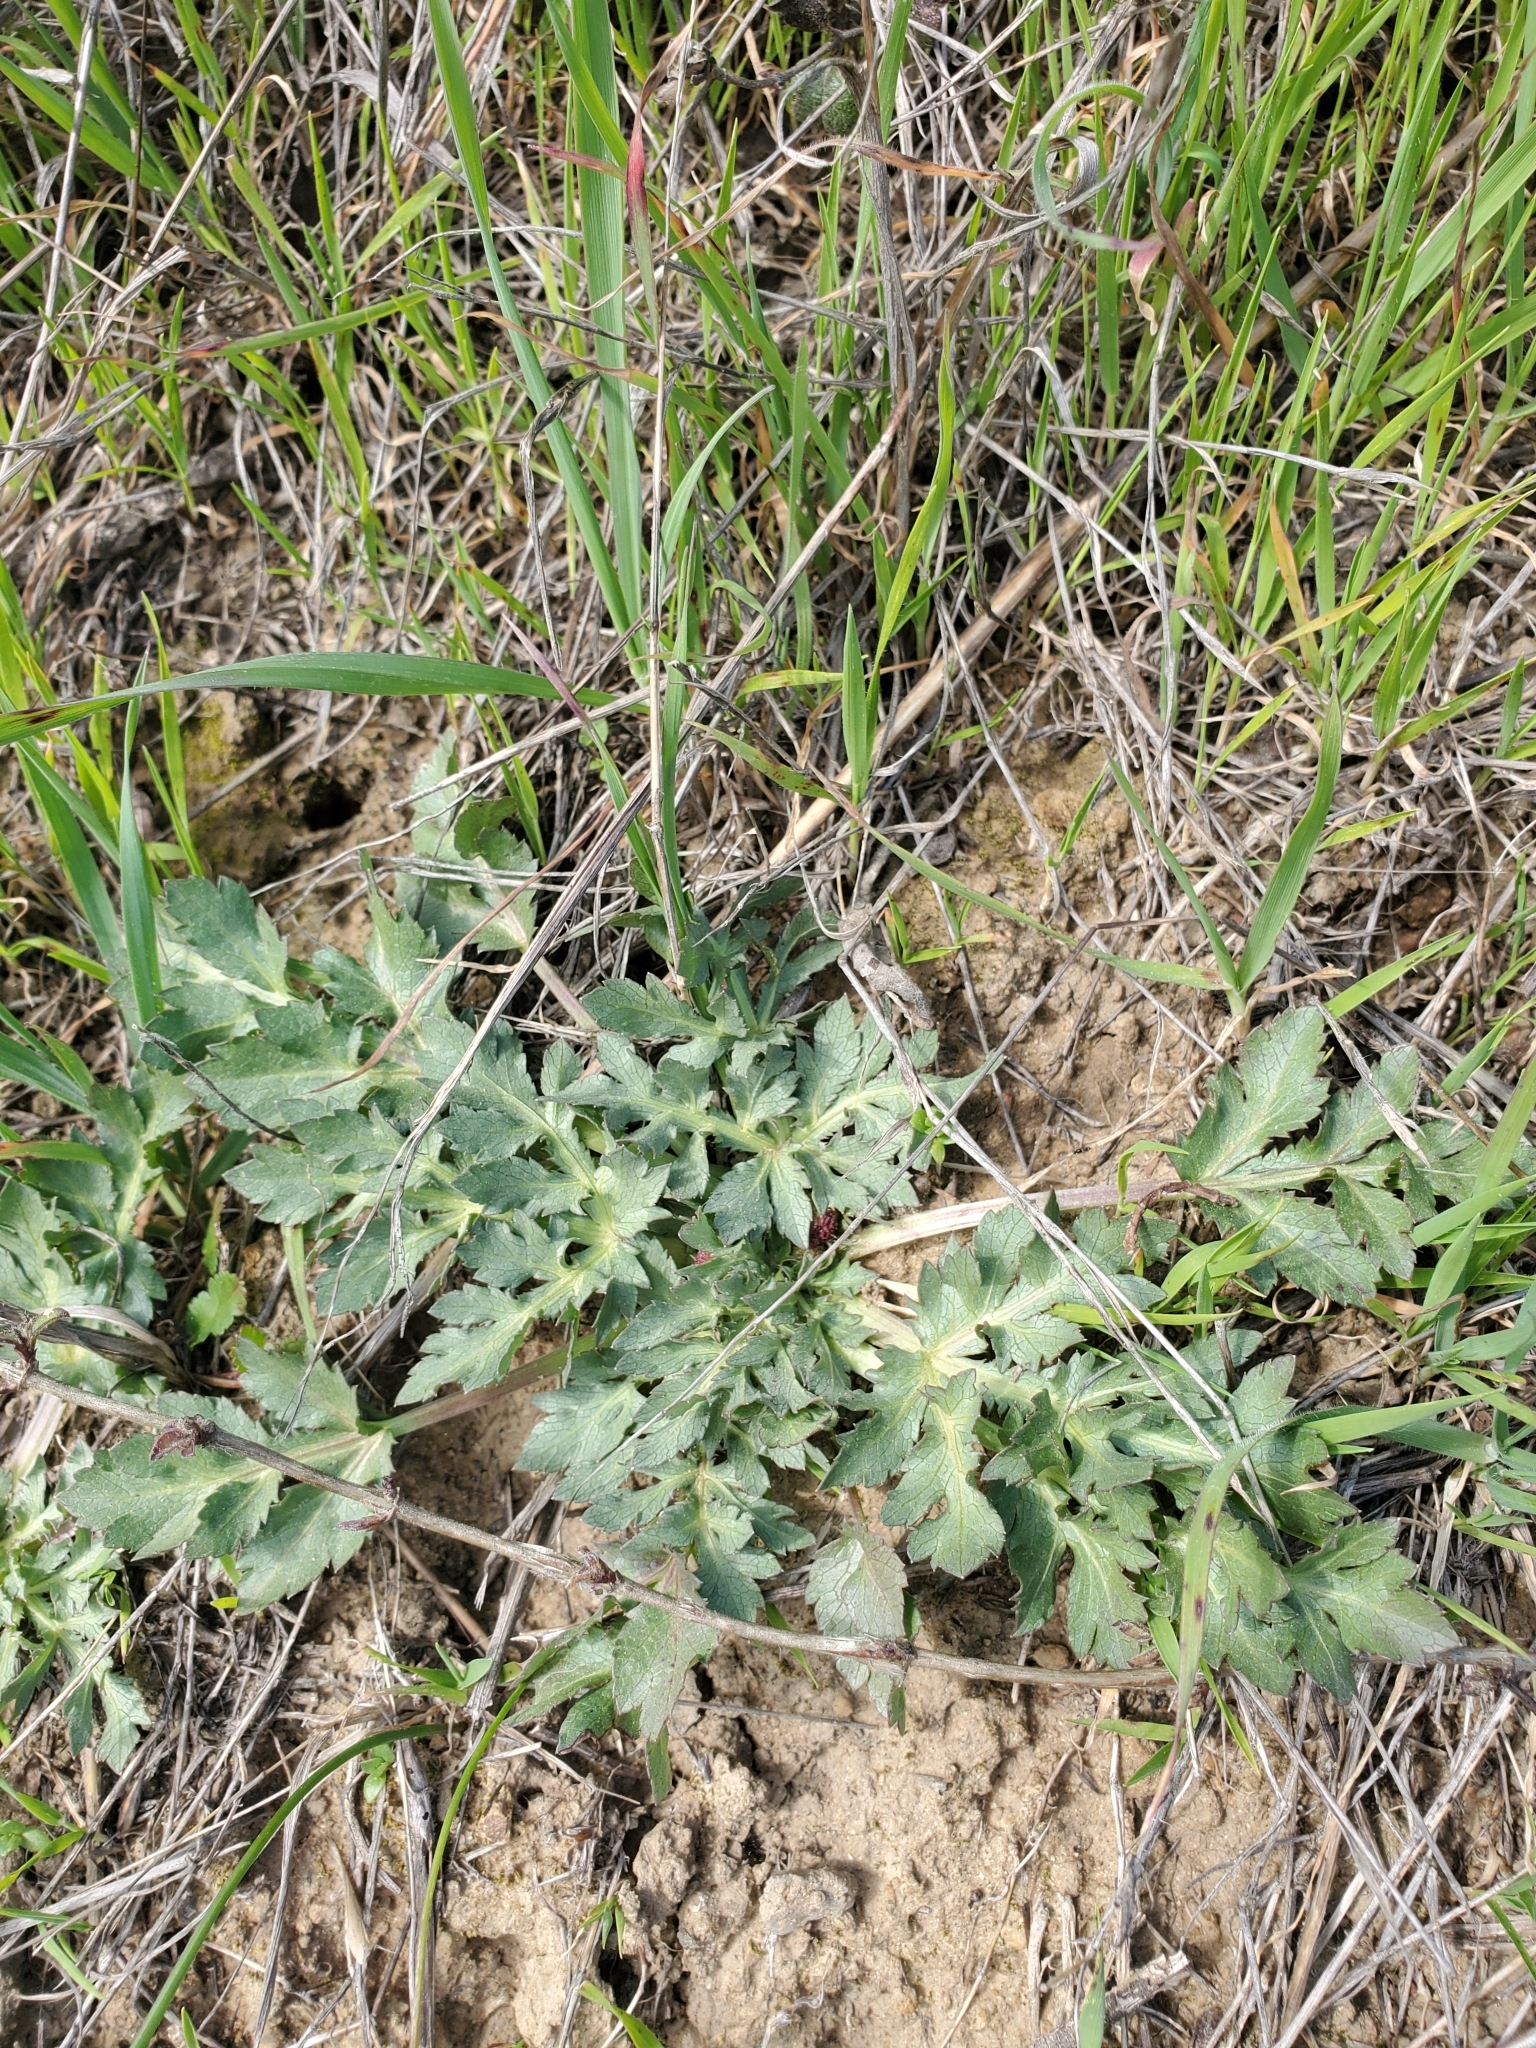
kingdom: Plantae
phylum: Tracheophyta
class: Magnoliopsida
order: Apiales
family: Apiaceae
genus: Sanicula
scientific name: Sanicula bipinnatifida
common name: Shoe-buttons
